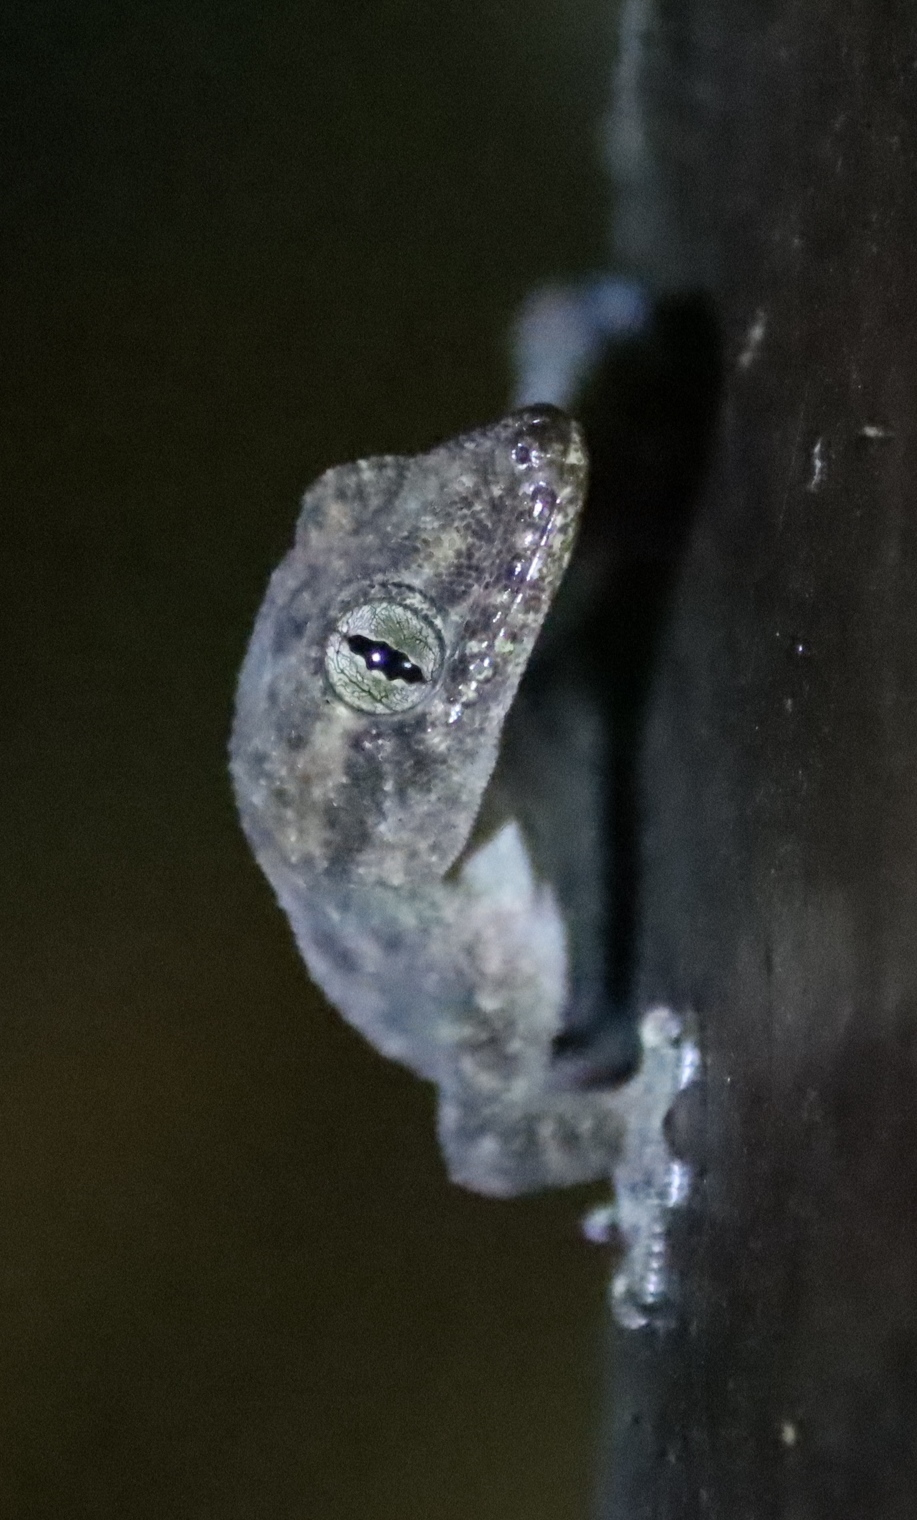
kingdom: Animalia
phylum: Chordata
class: Squamata
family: Gekkonidae
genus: Hemidactylus
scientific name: Hemidactylus mabouia
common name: House gecko
